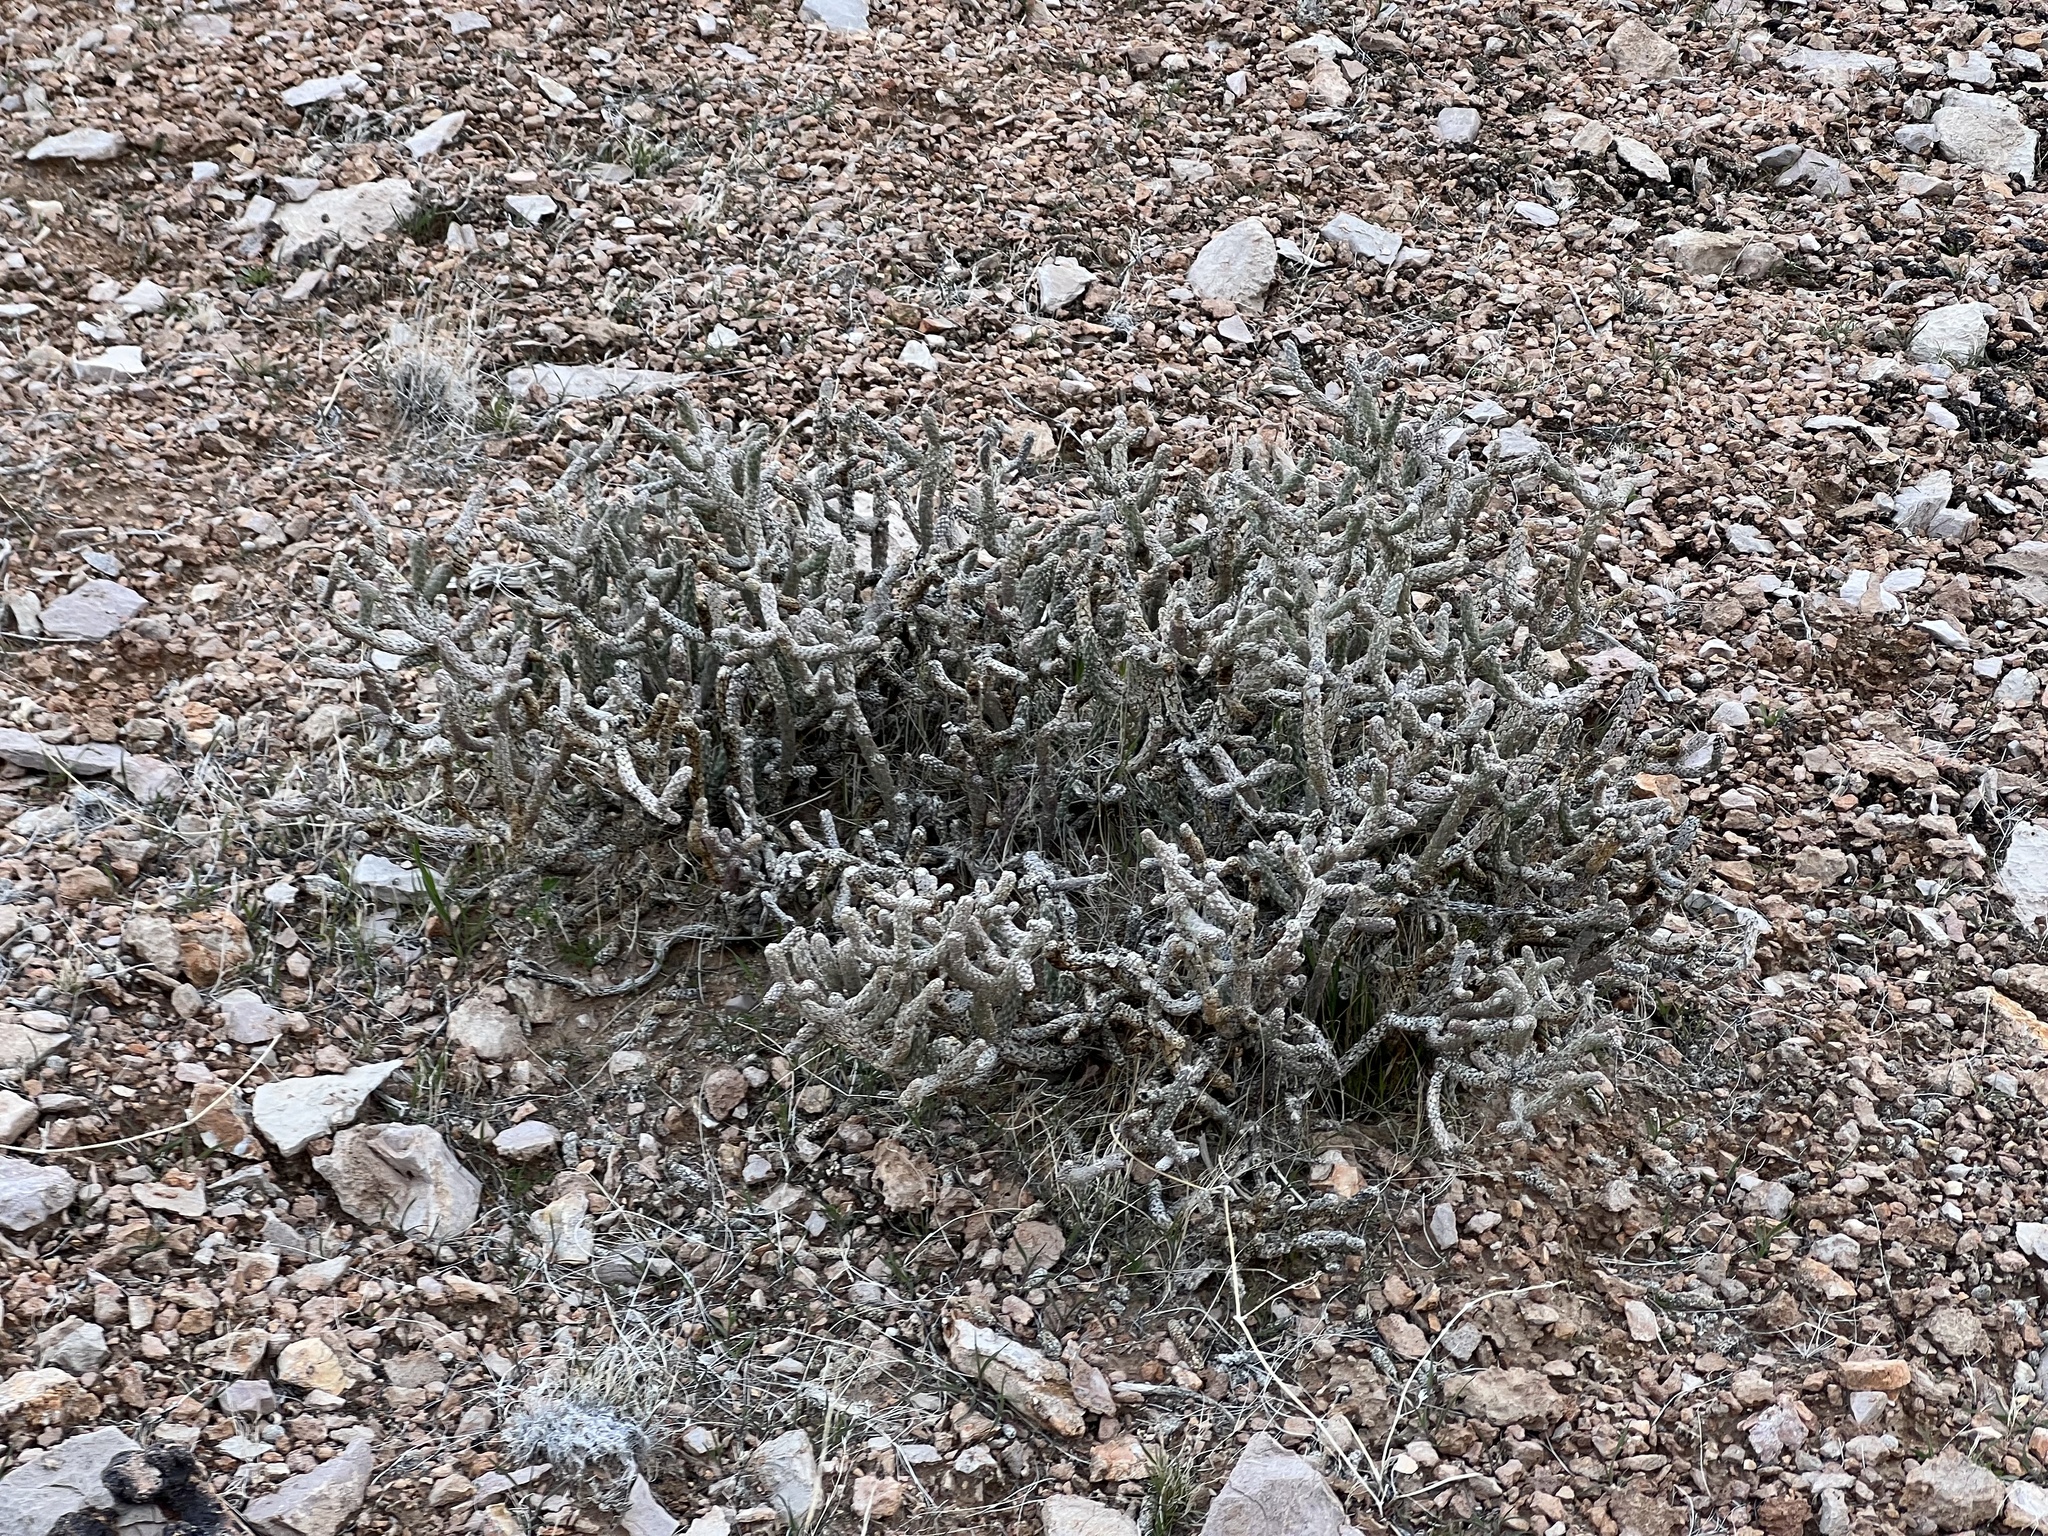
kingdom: Plantae
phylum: Tracheophyta
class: Magnoliopsida
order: Caryophyllales
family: Cactaceae
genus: Cylindropuntia
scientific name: Cylindropuntia ramosissima
